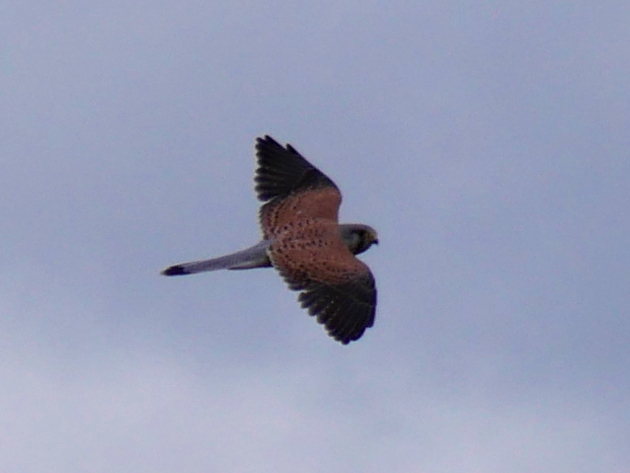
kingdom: Animalia
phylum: Chordata
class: Aves
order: Falconiformes
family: Falconidae
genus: Falco
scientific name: Falco tinnunculus
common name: Common kestrel
